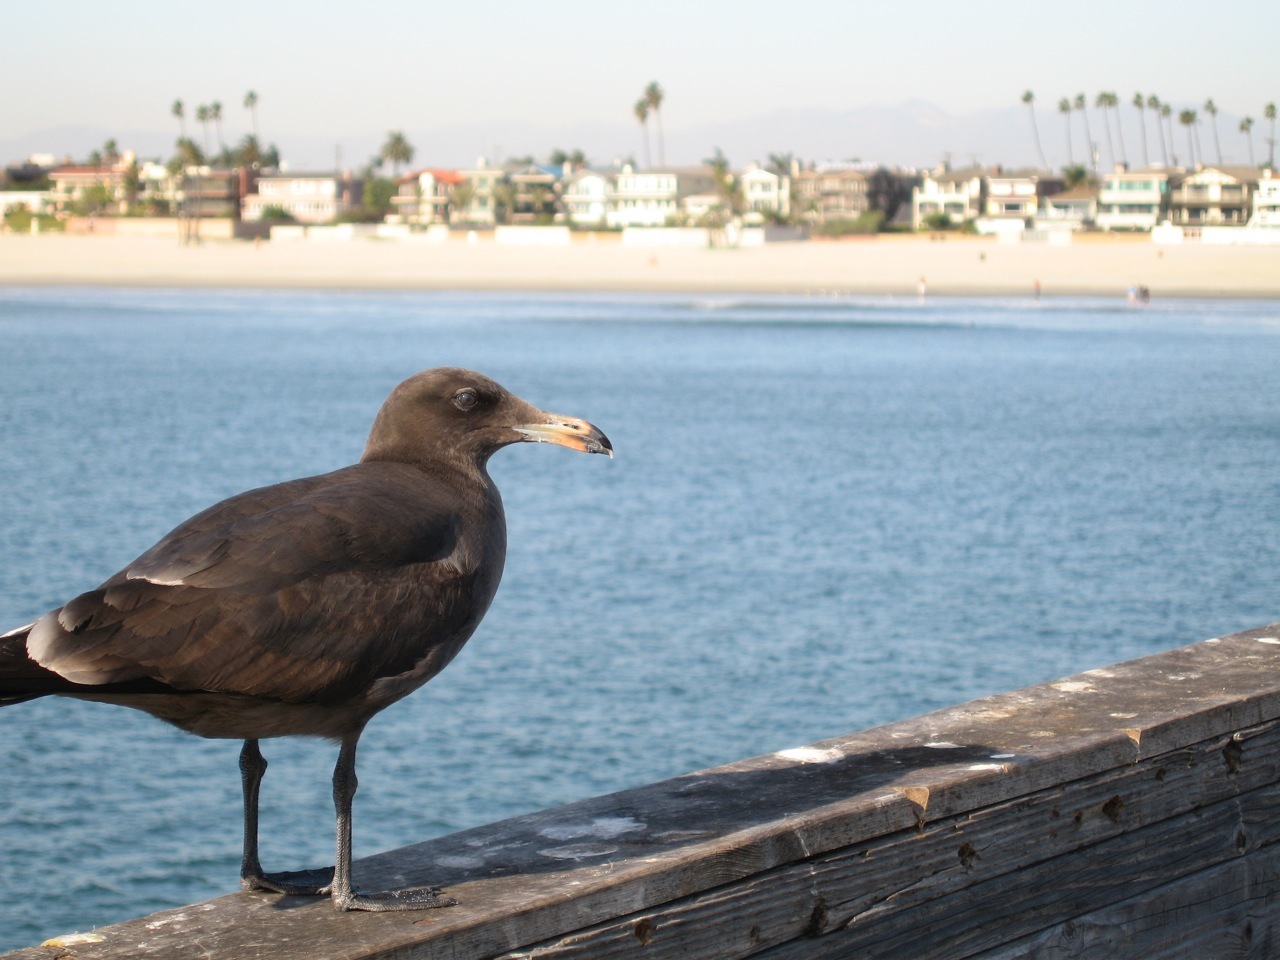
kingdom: Animalia
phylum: Chordata
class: Aves
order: Charadriiformes
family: Laridae
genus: Larus
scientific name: Larus heermanni
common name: Heermann's gull
